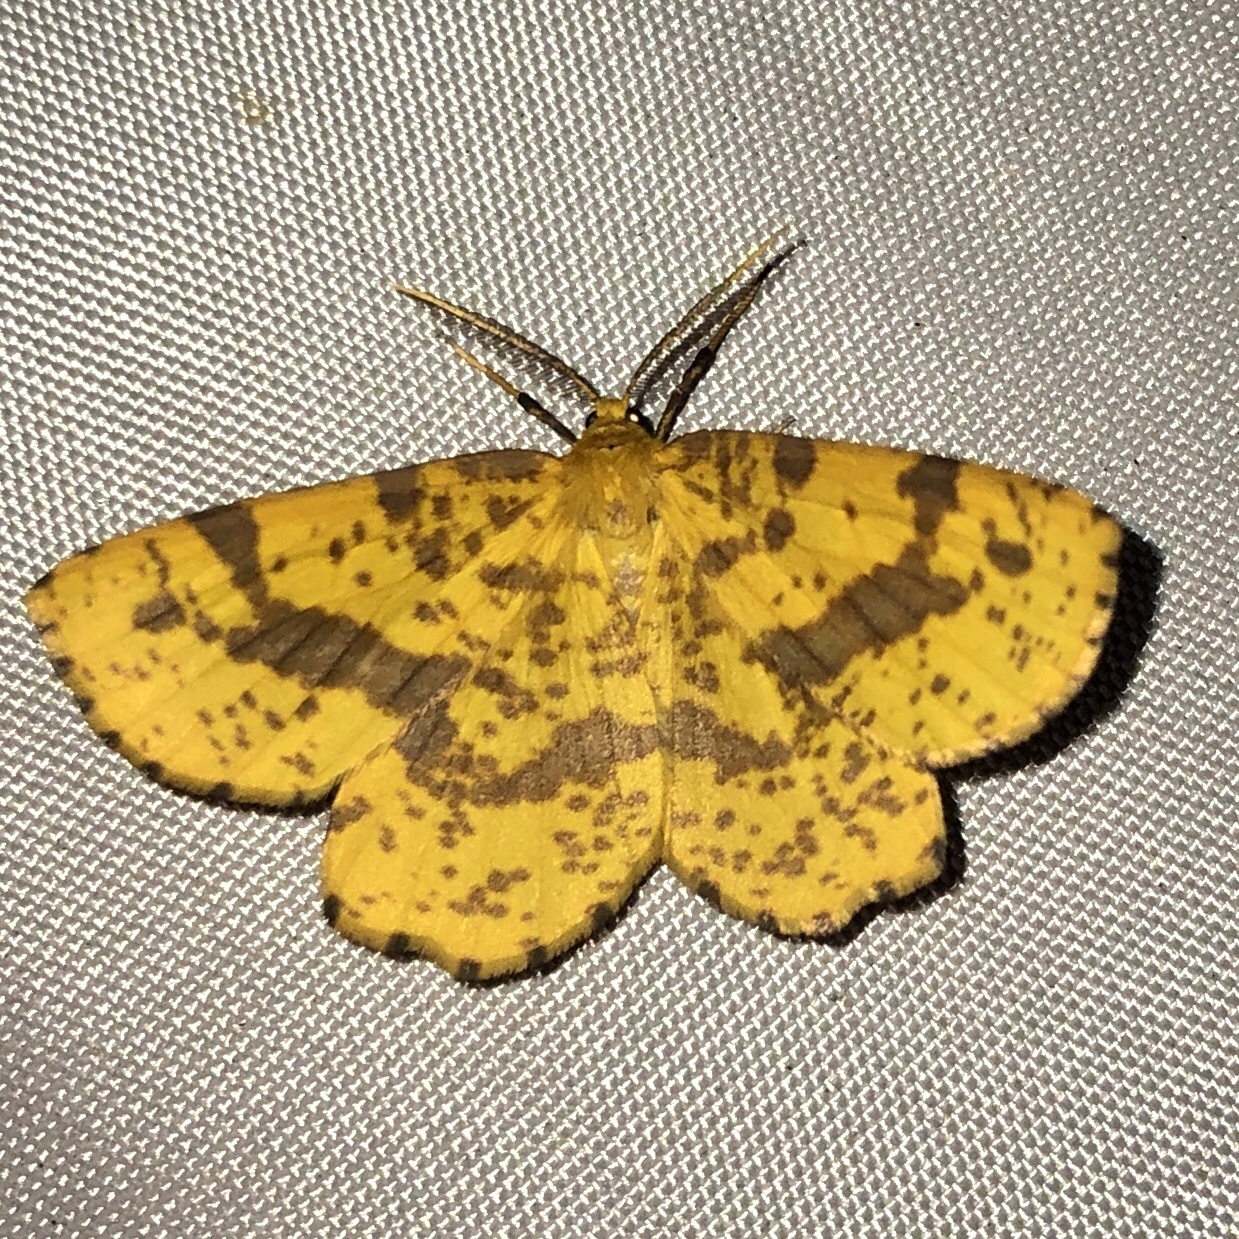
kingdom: Animalia
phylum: Arthropoda
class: Insecta
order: Lepidoptera
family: Geometridae
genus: Xanthotype
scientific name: Xanthotype
